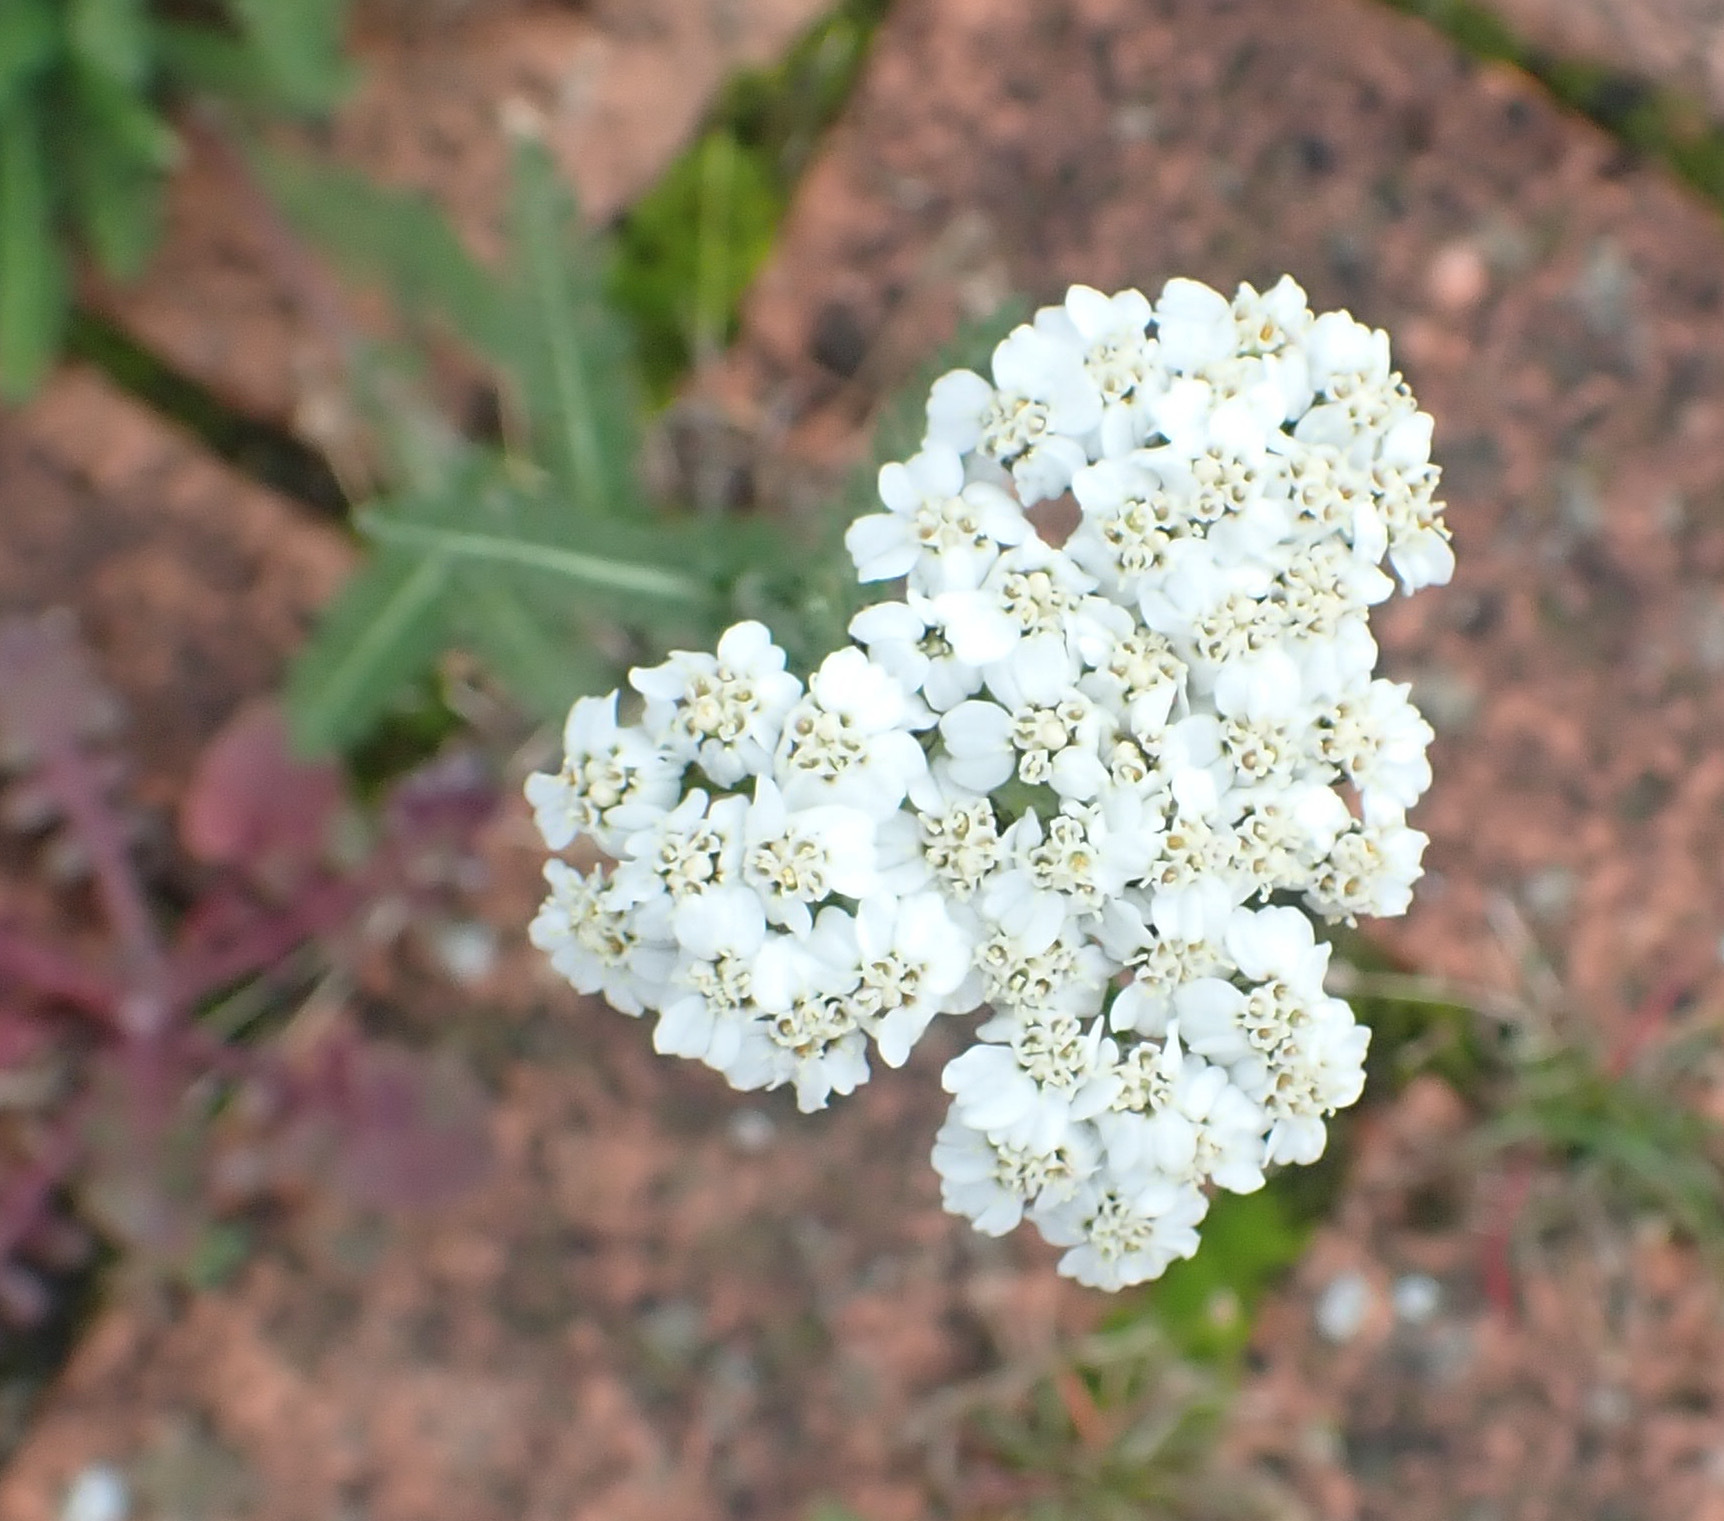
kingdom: Plantae
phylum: Tracheophyta
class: Magnoliopsida
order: Asterales
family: Asteraceae
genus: Achillea
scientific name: Achillea millefolium
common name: Yarrow
